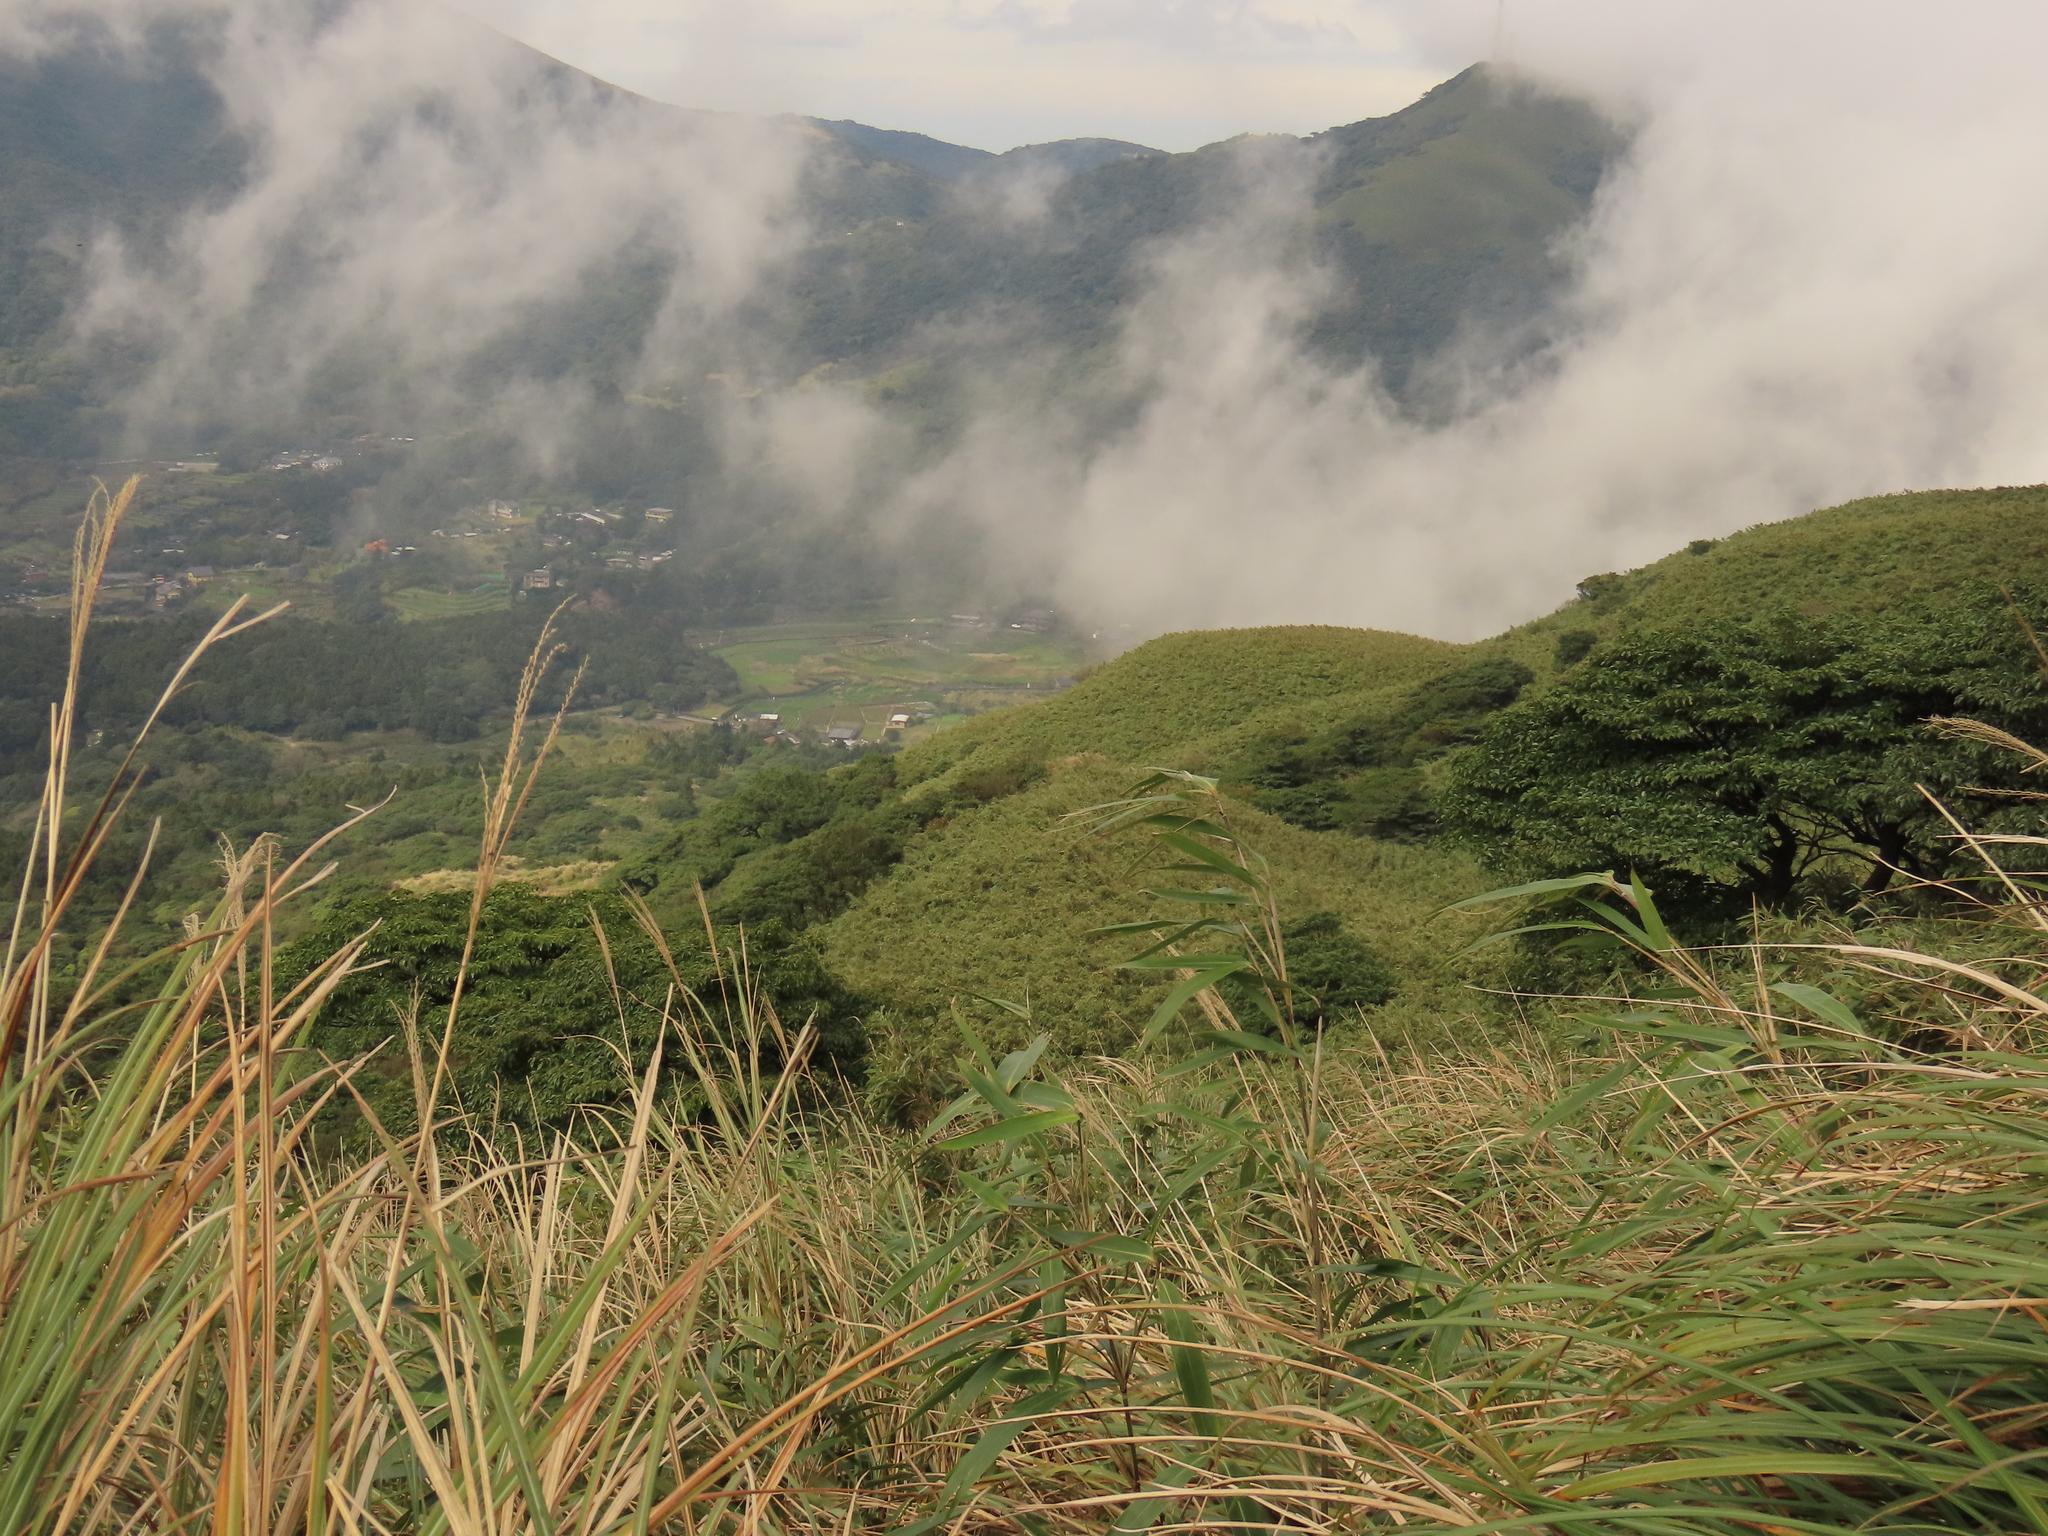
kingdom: Plantae
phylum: Tracheophyta
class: Magnoliopsida
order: Trochodendrales
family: Trochodendraceae
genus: Trochodendron
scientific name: Trochodendron aralioides
